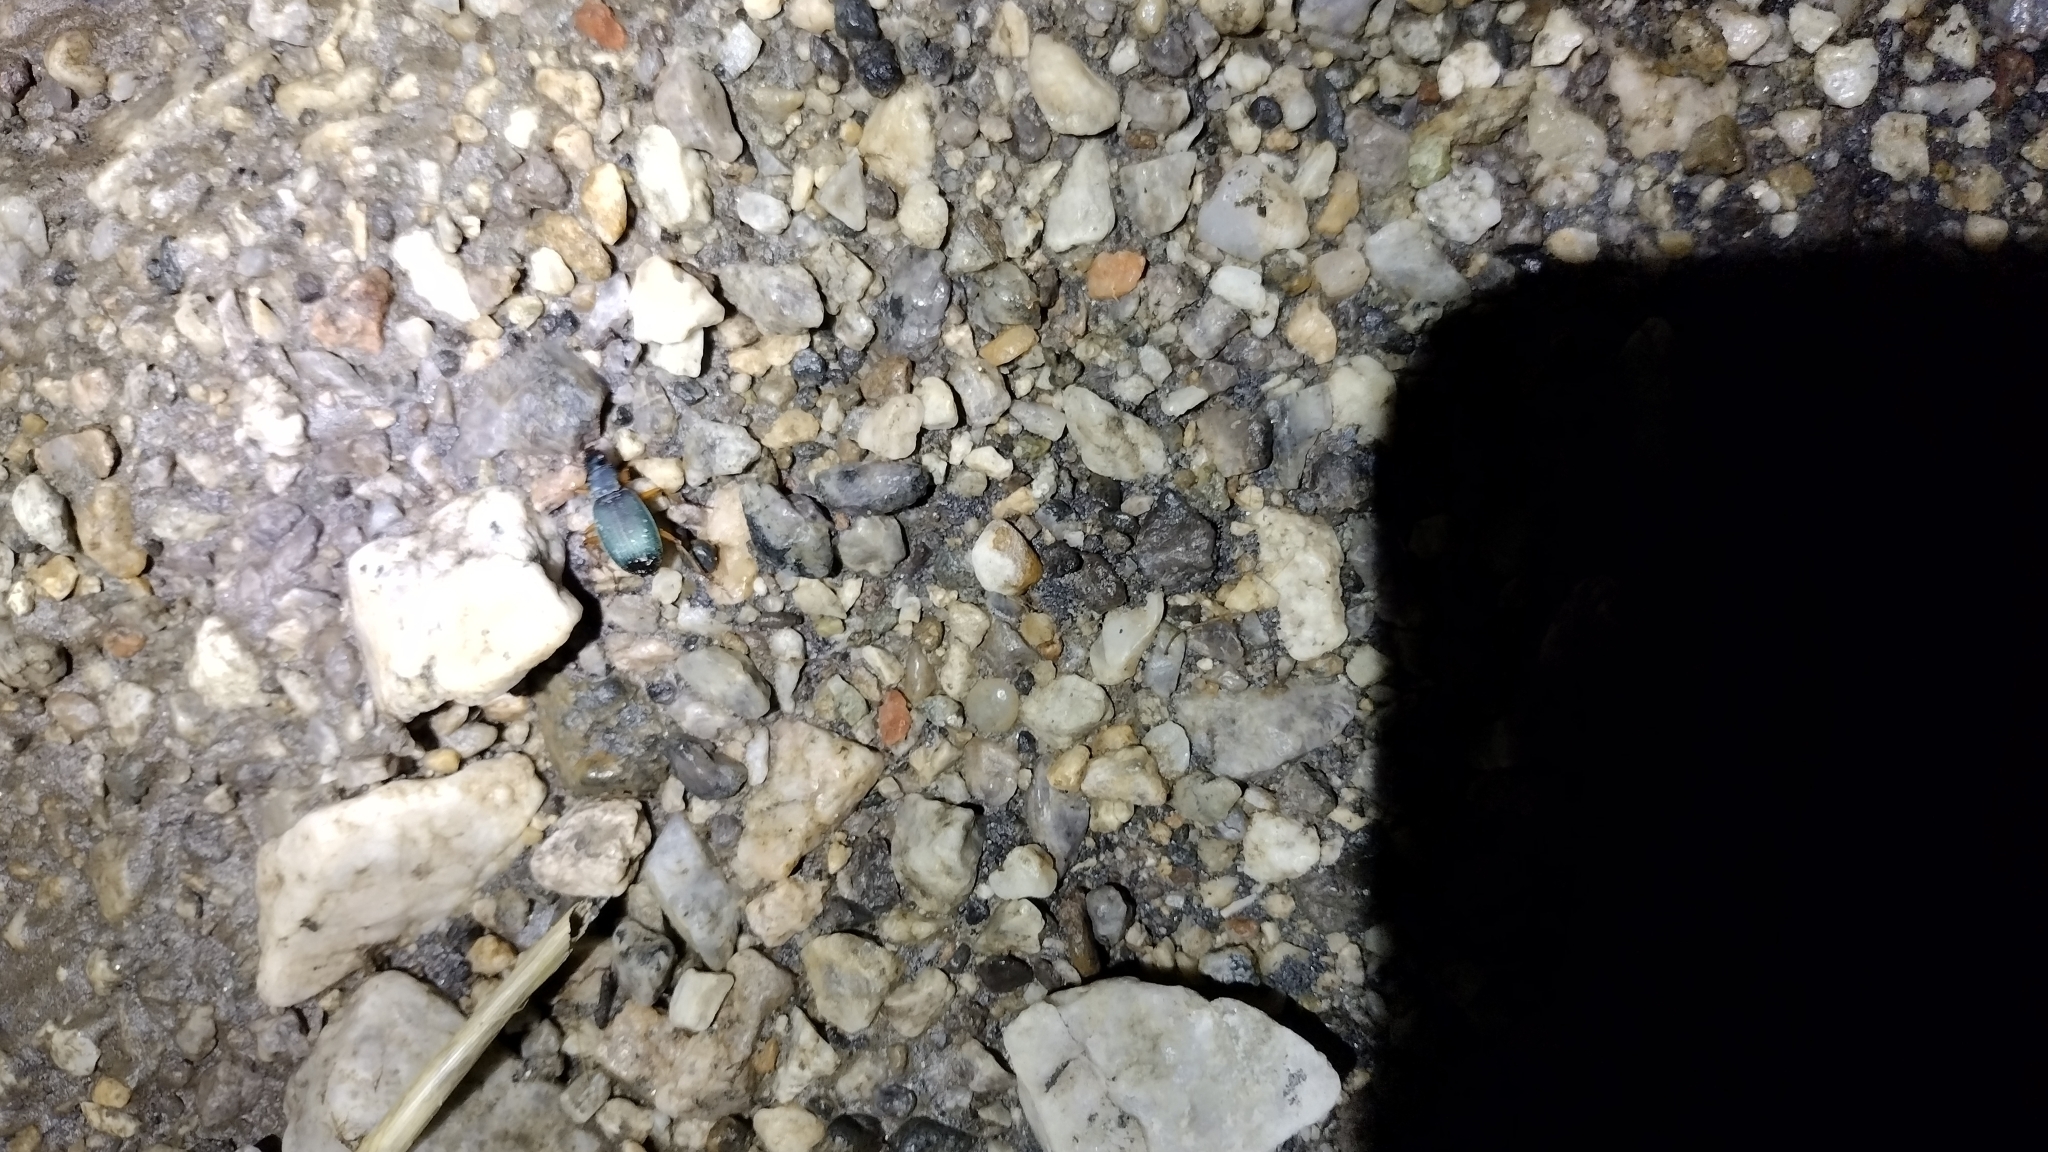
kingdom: Animalia
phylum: Arthropoda
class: Insecta
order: Coleoptera
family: Carabidae
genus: Chlaenius
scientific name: Chlaenius cumatilis
